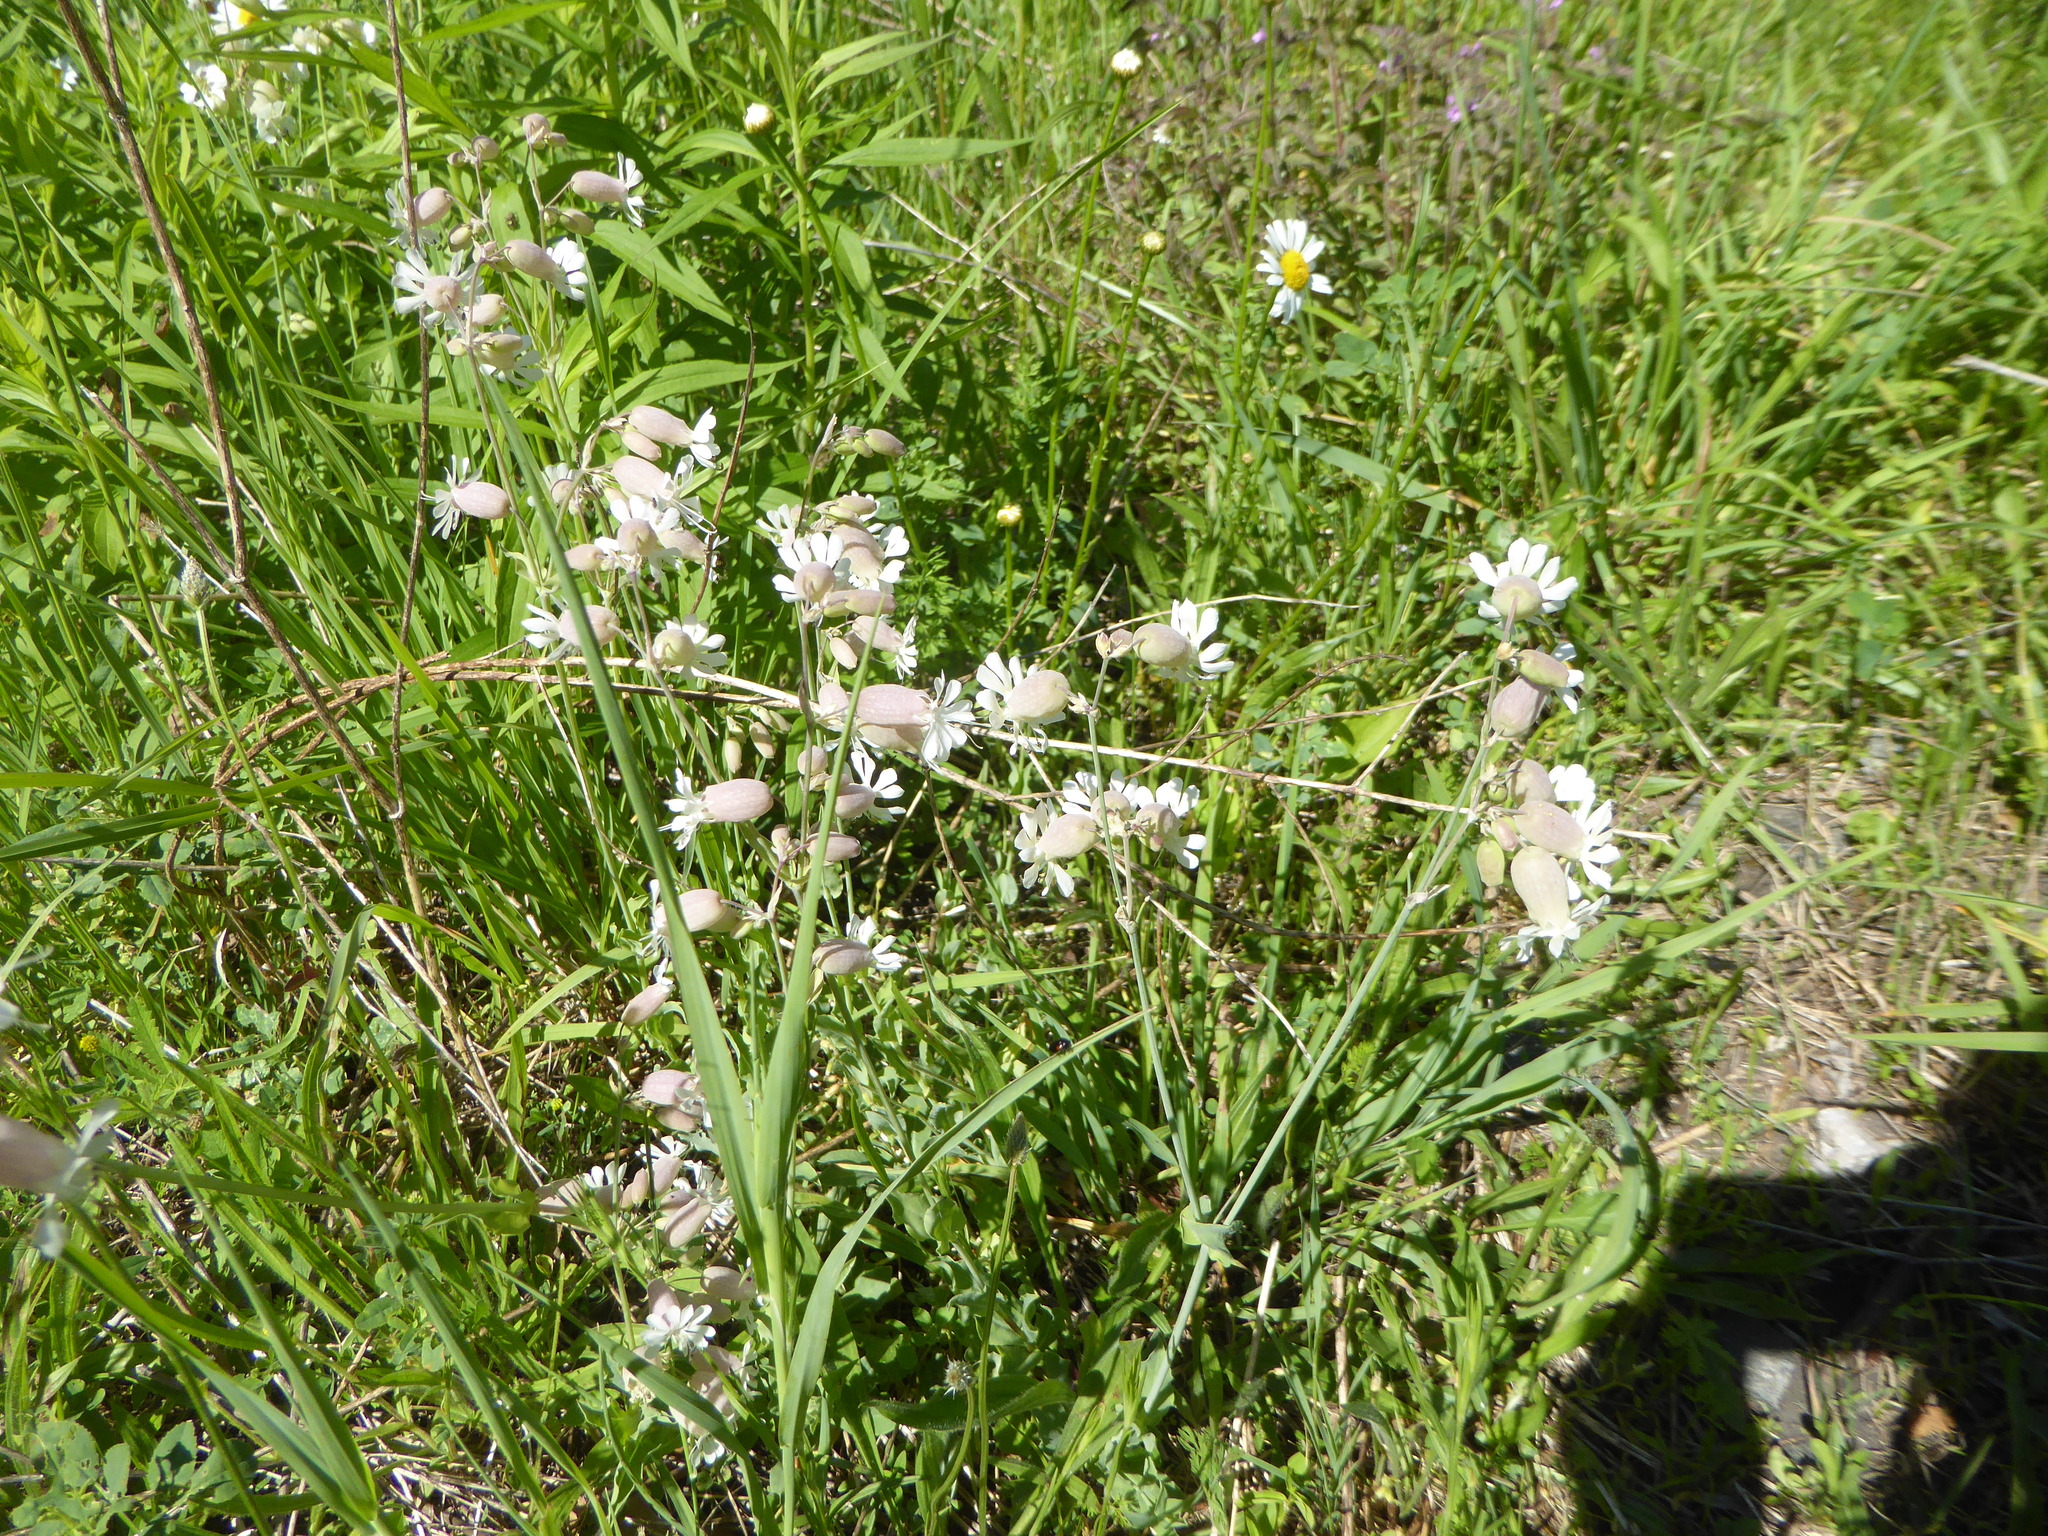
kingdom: Plantae
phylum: Tracheophyta
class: Magnoliopsida
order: Caryophyllales
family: Caryophyllaceae
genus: Silene
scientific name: Silene vulgaris
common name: Bladder campion
